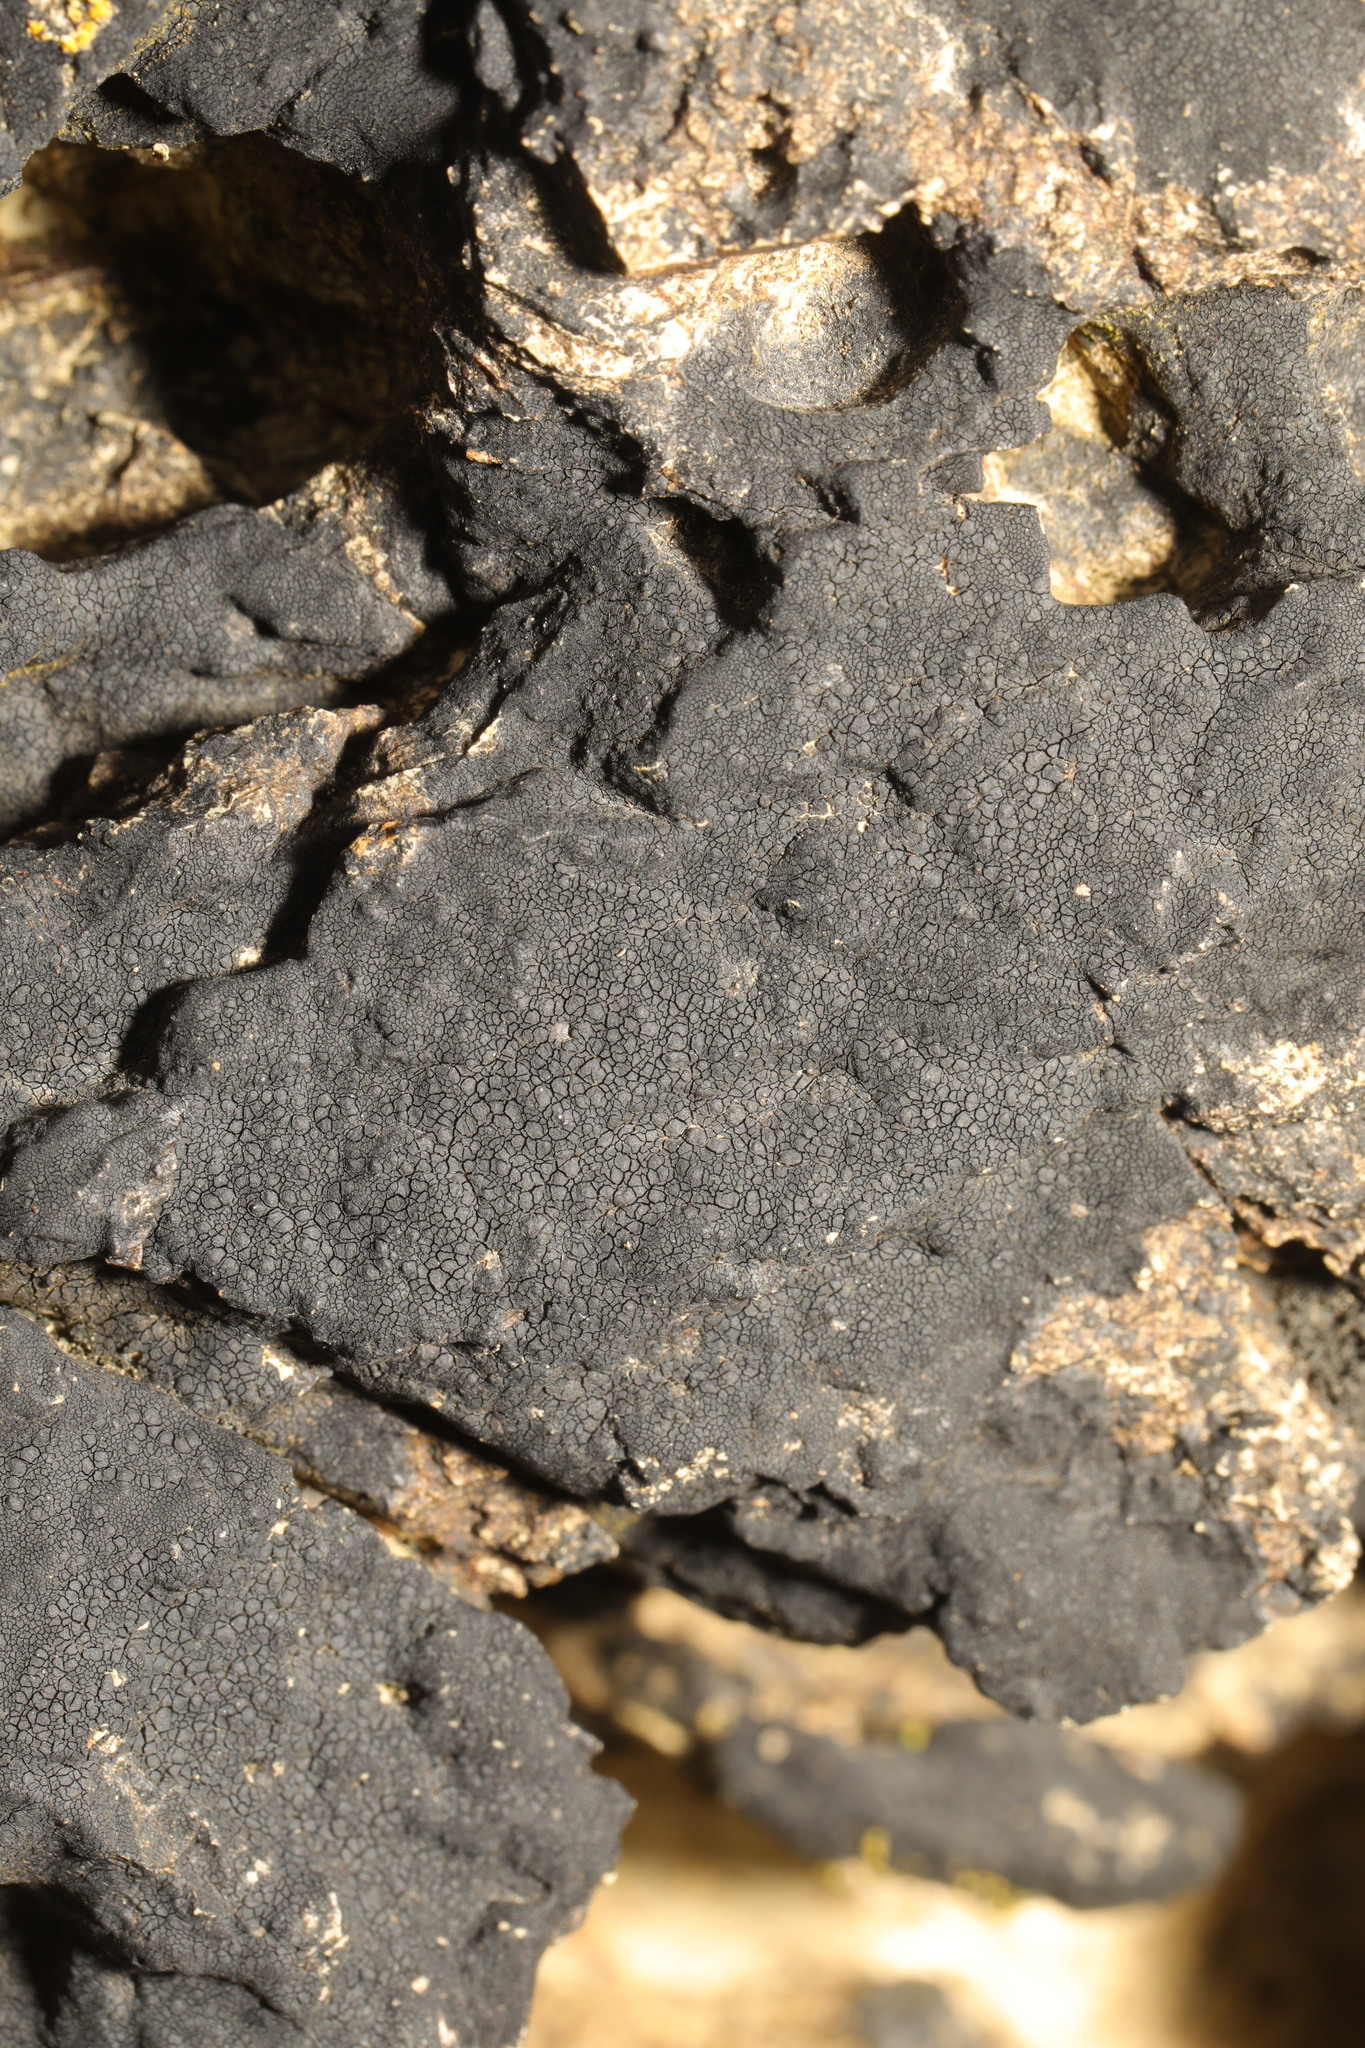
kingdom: Fungi
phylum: Ascomycota
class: Eurotiomycetes
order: Verrucariales
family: Verrucariaceae
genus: Hydropunctaria
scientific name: Hydropunctaria maura
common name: Tar lichen
